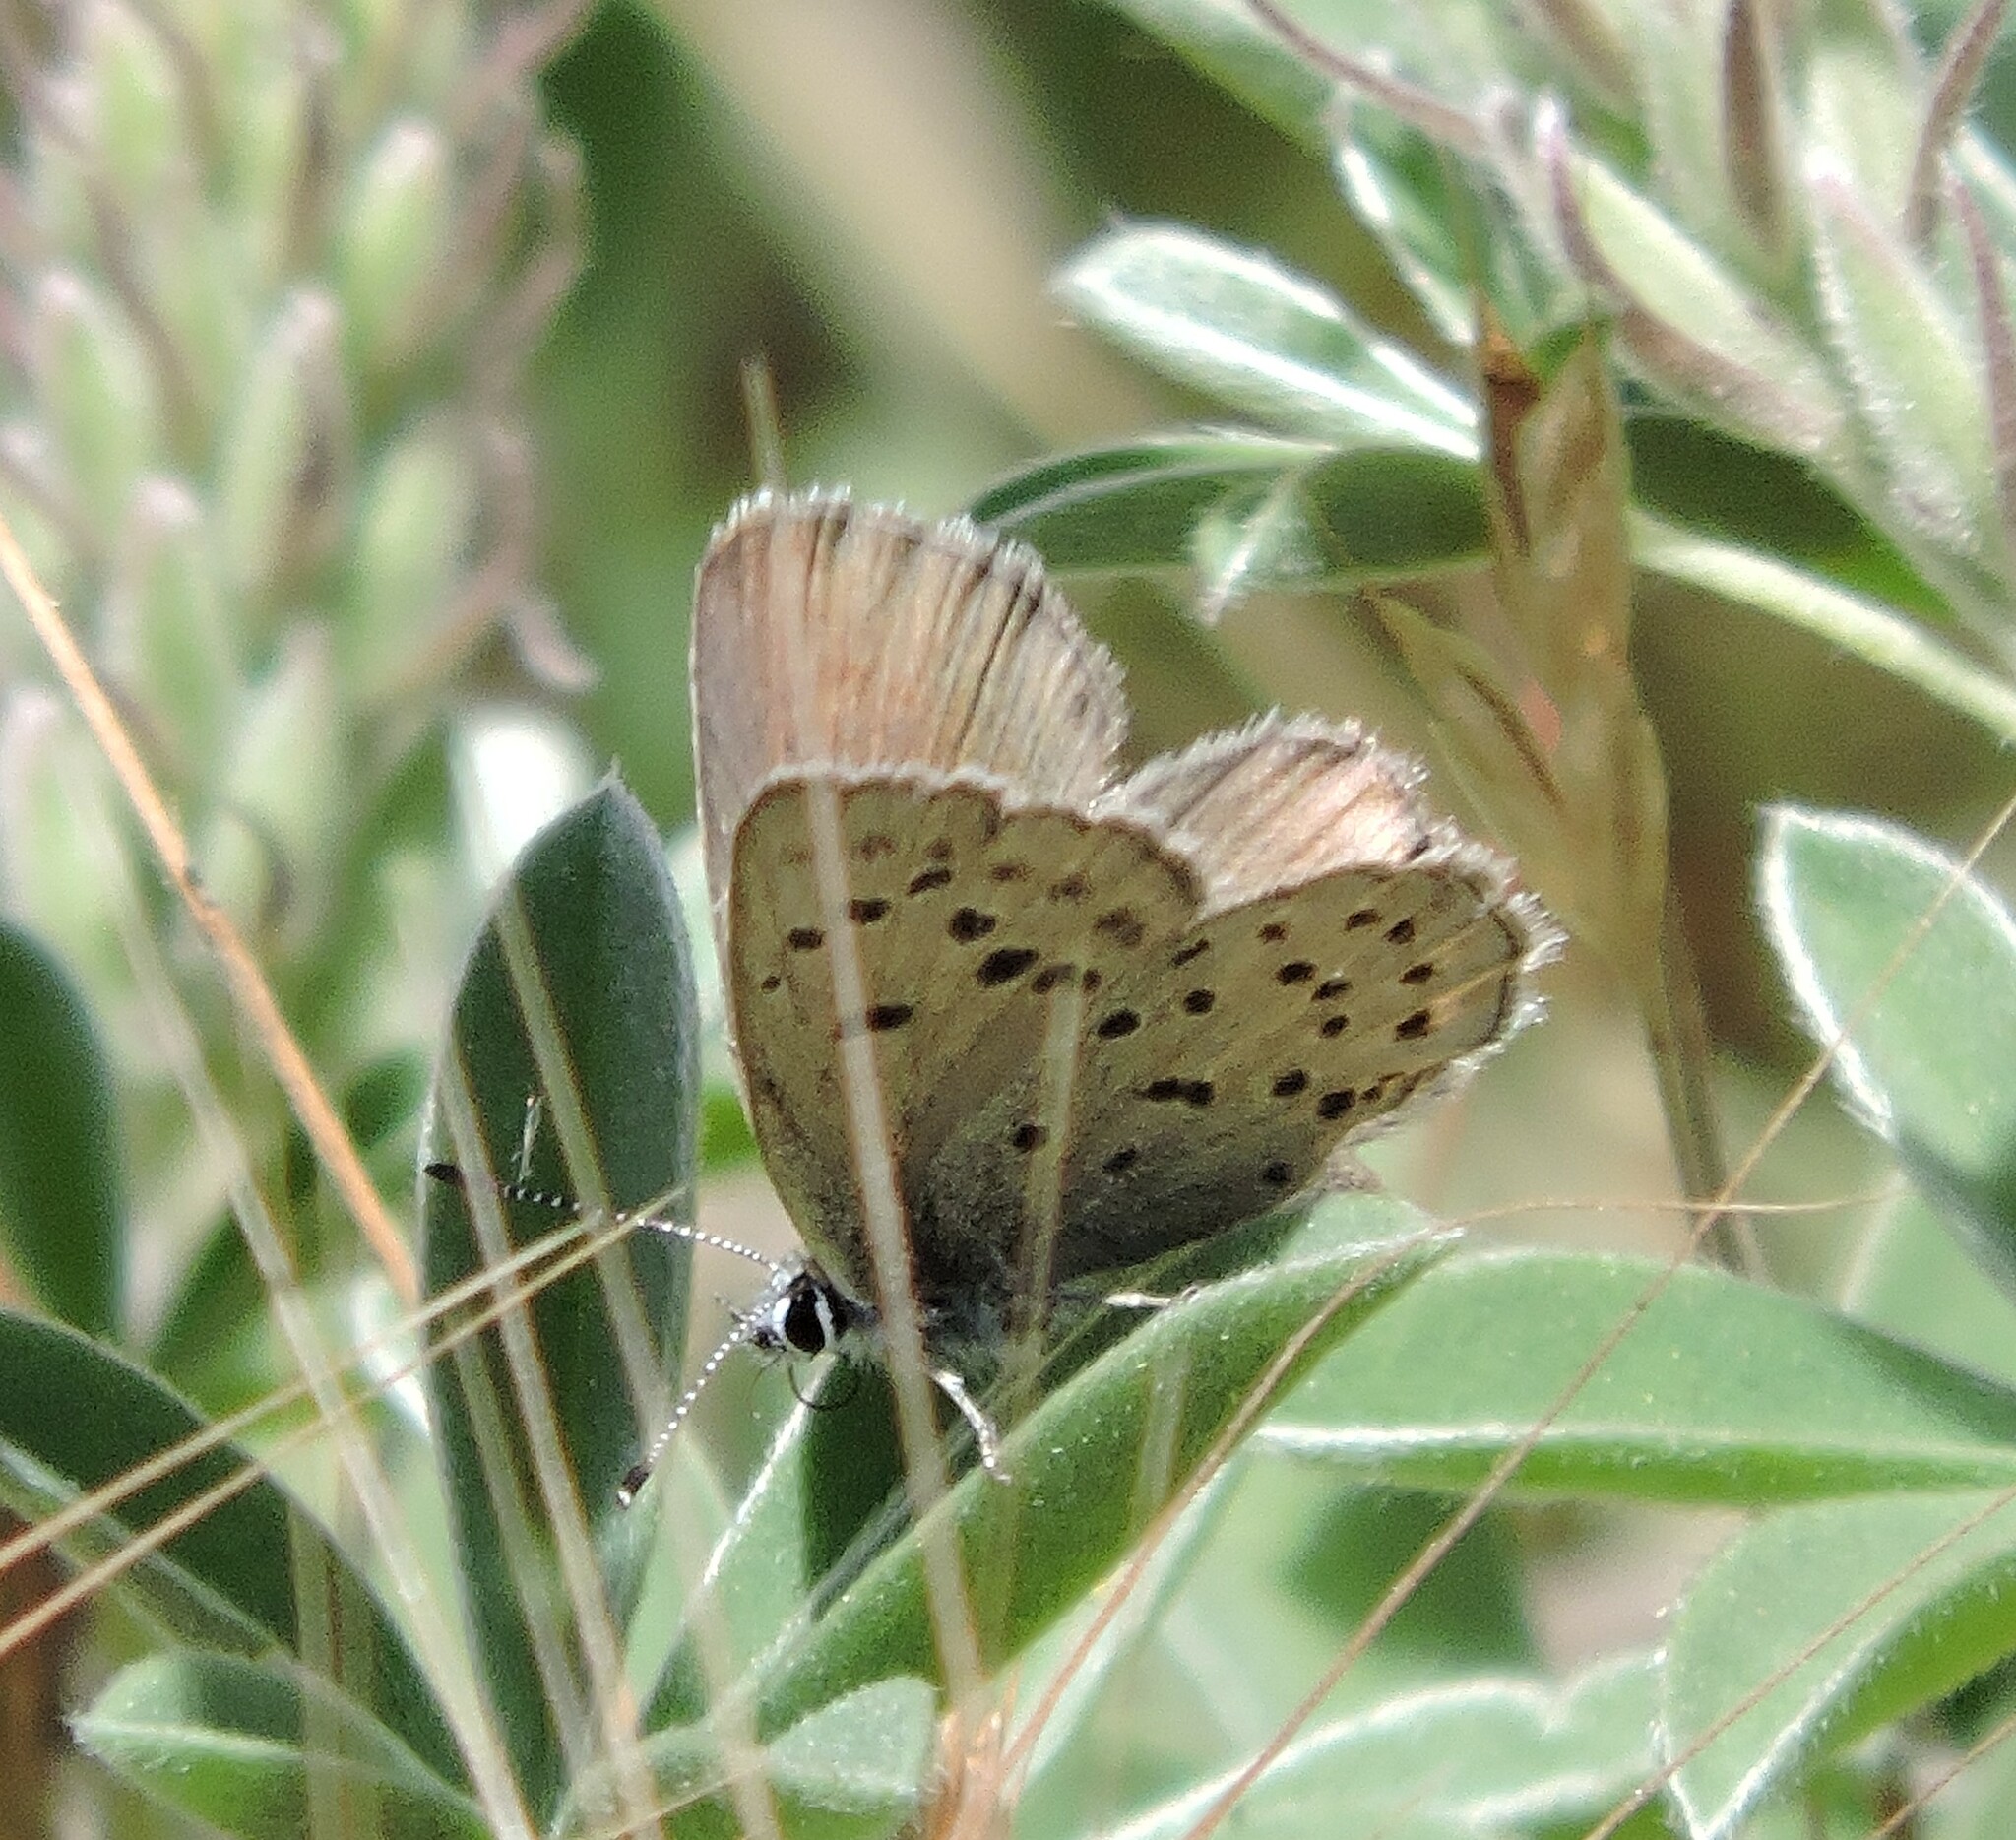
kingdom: Animalia
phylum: Arthropoda
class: Insecta
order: Lepidoptera
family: Lycaenidae
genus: Icaricia
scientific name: Icaricia icarioides
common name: Boisduval's blue
